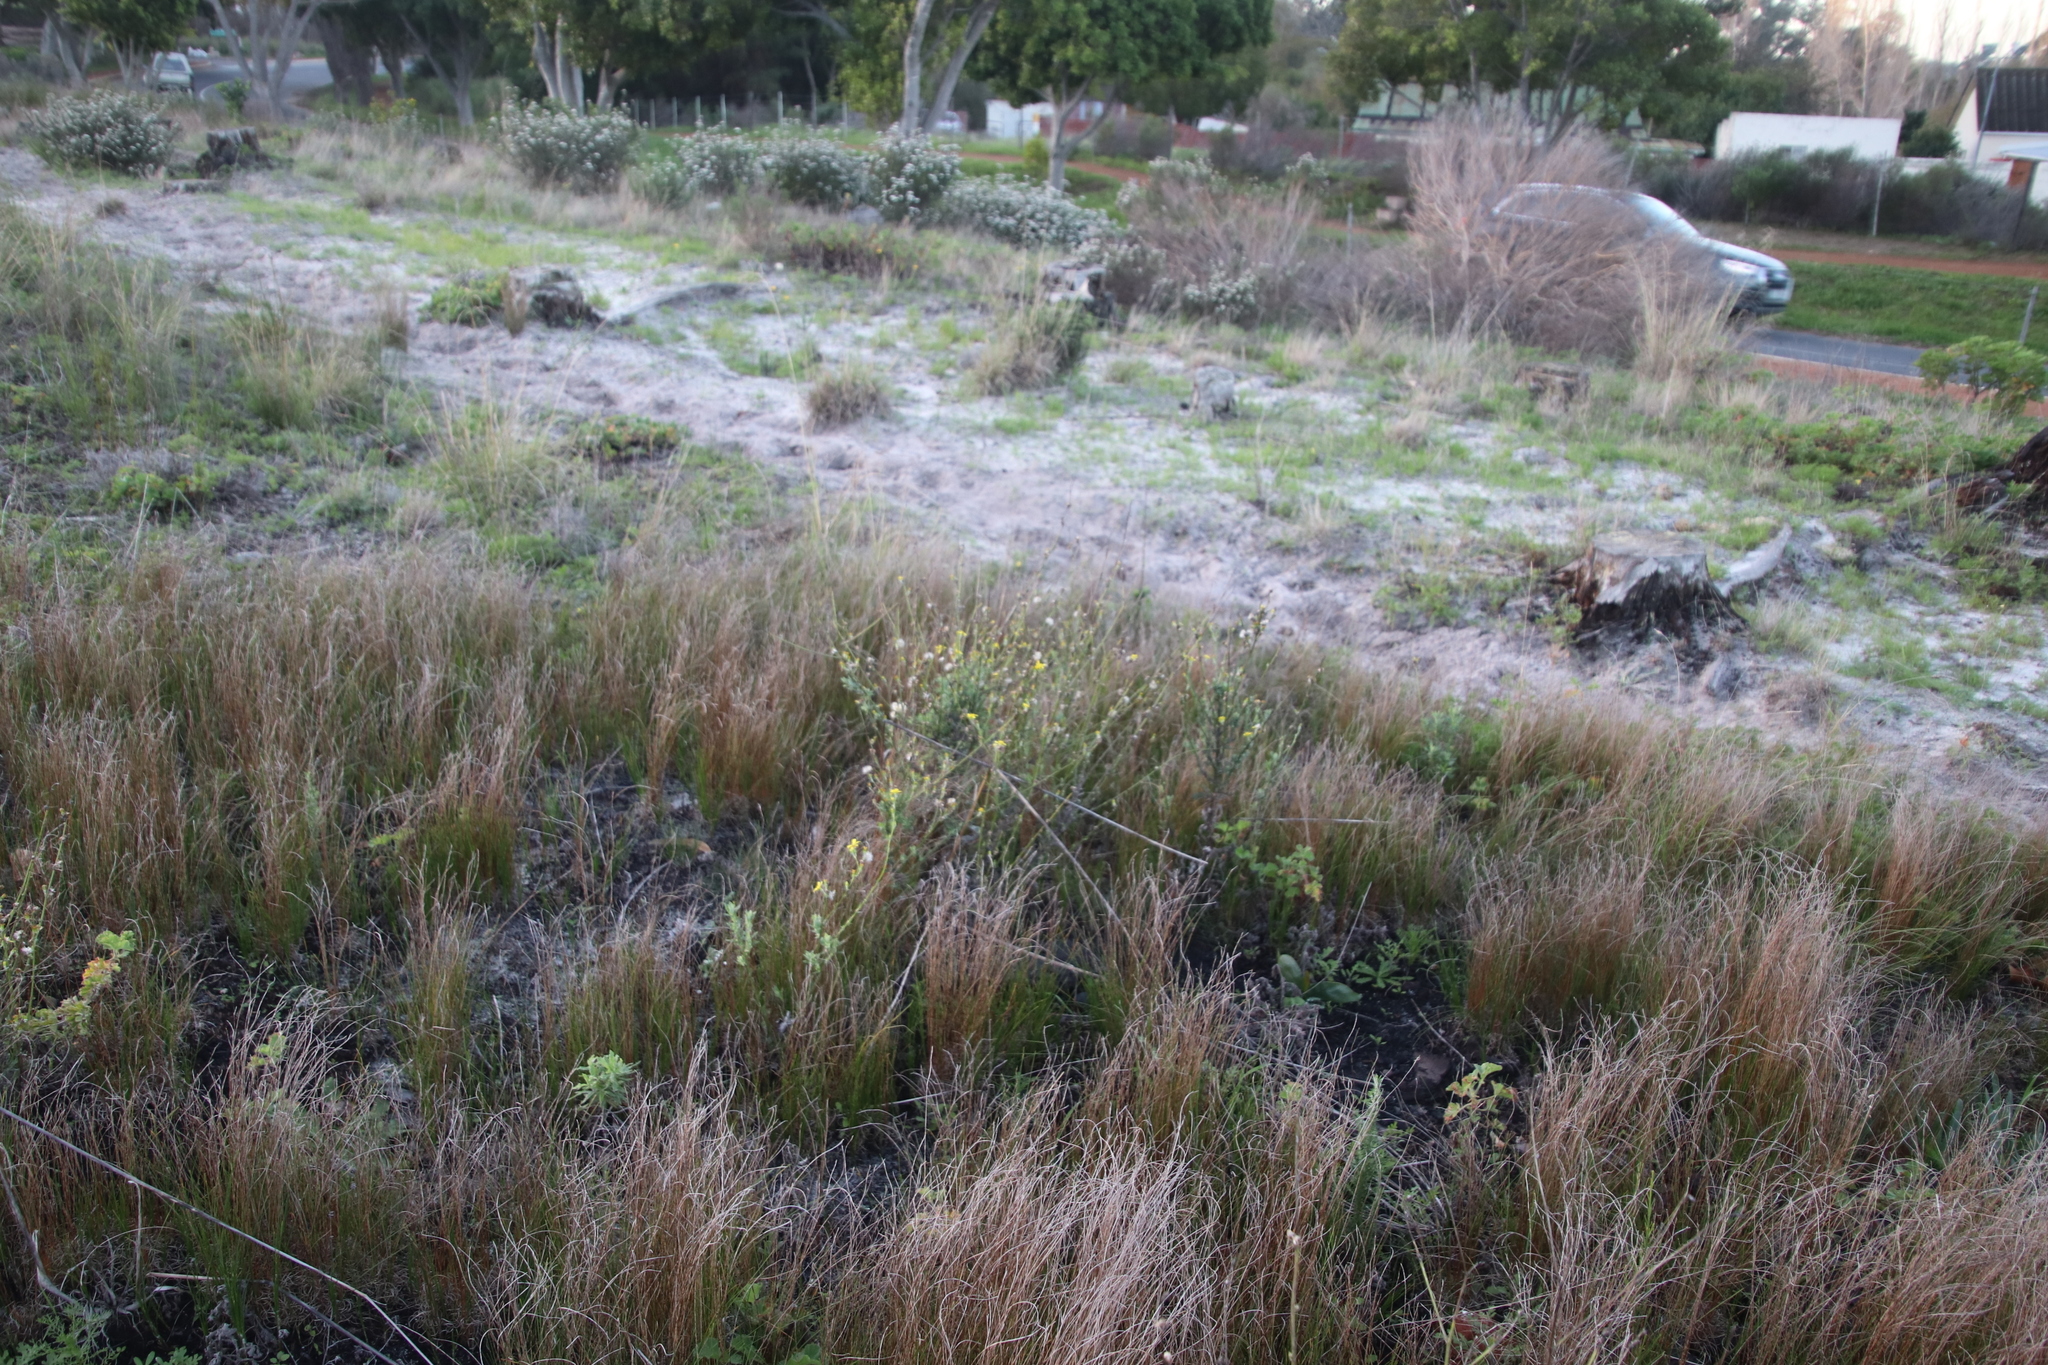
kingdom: Plantae
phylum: Tracheophyta
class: Magnoliopsida
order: Asterales
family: Asteraceae
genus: Senecio
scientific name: Senecio pubigerus
